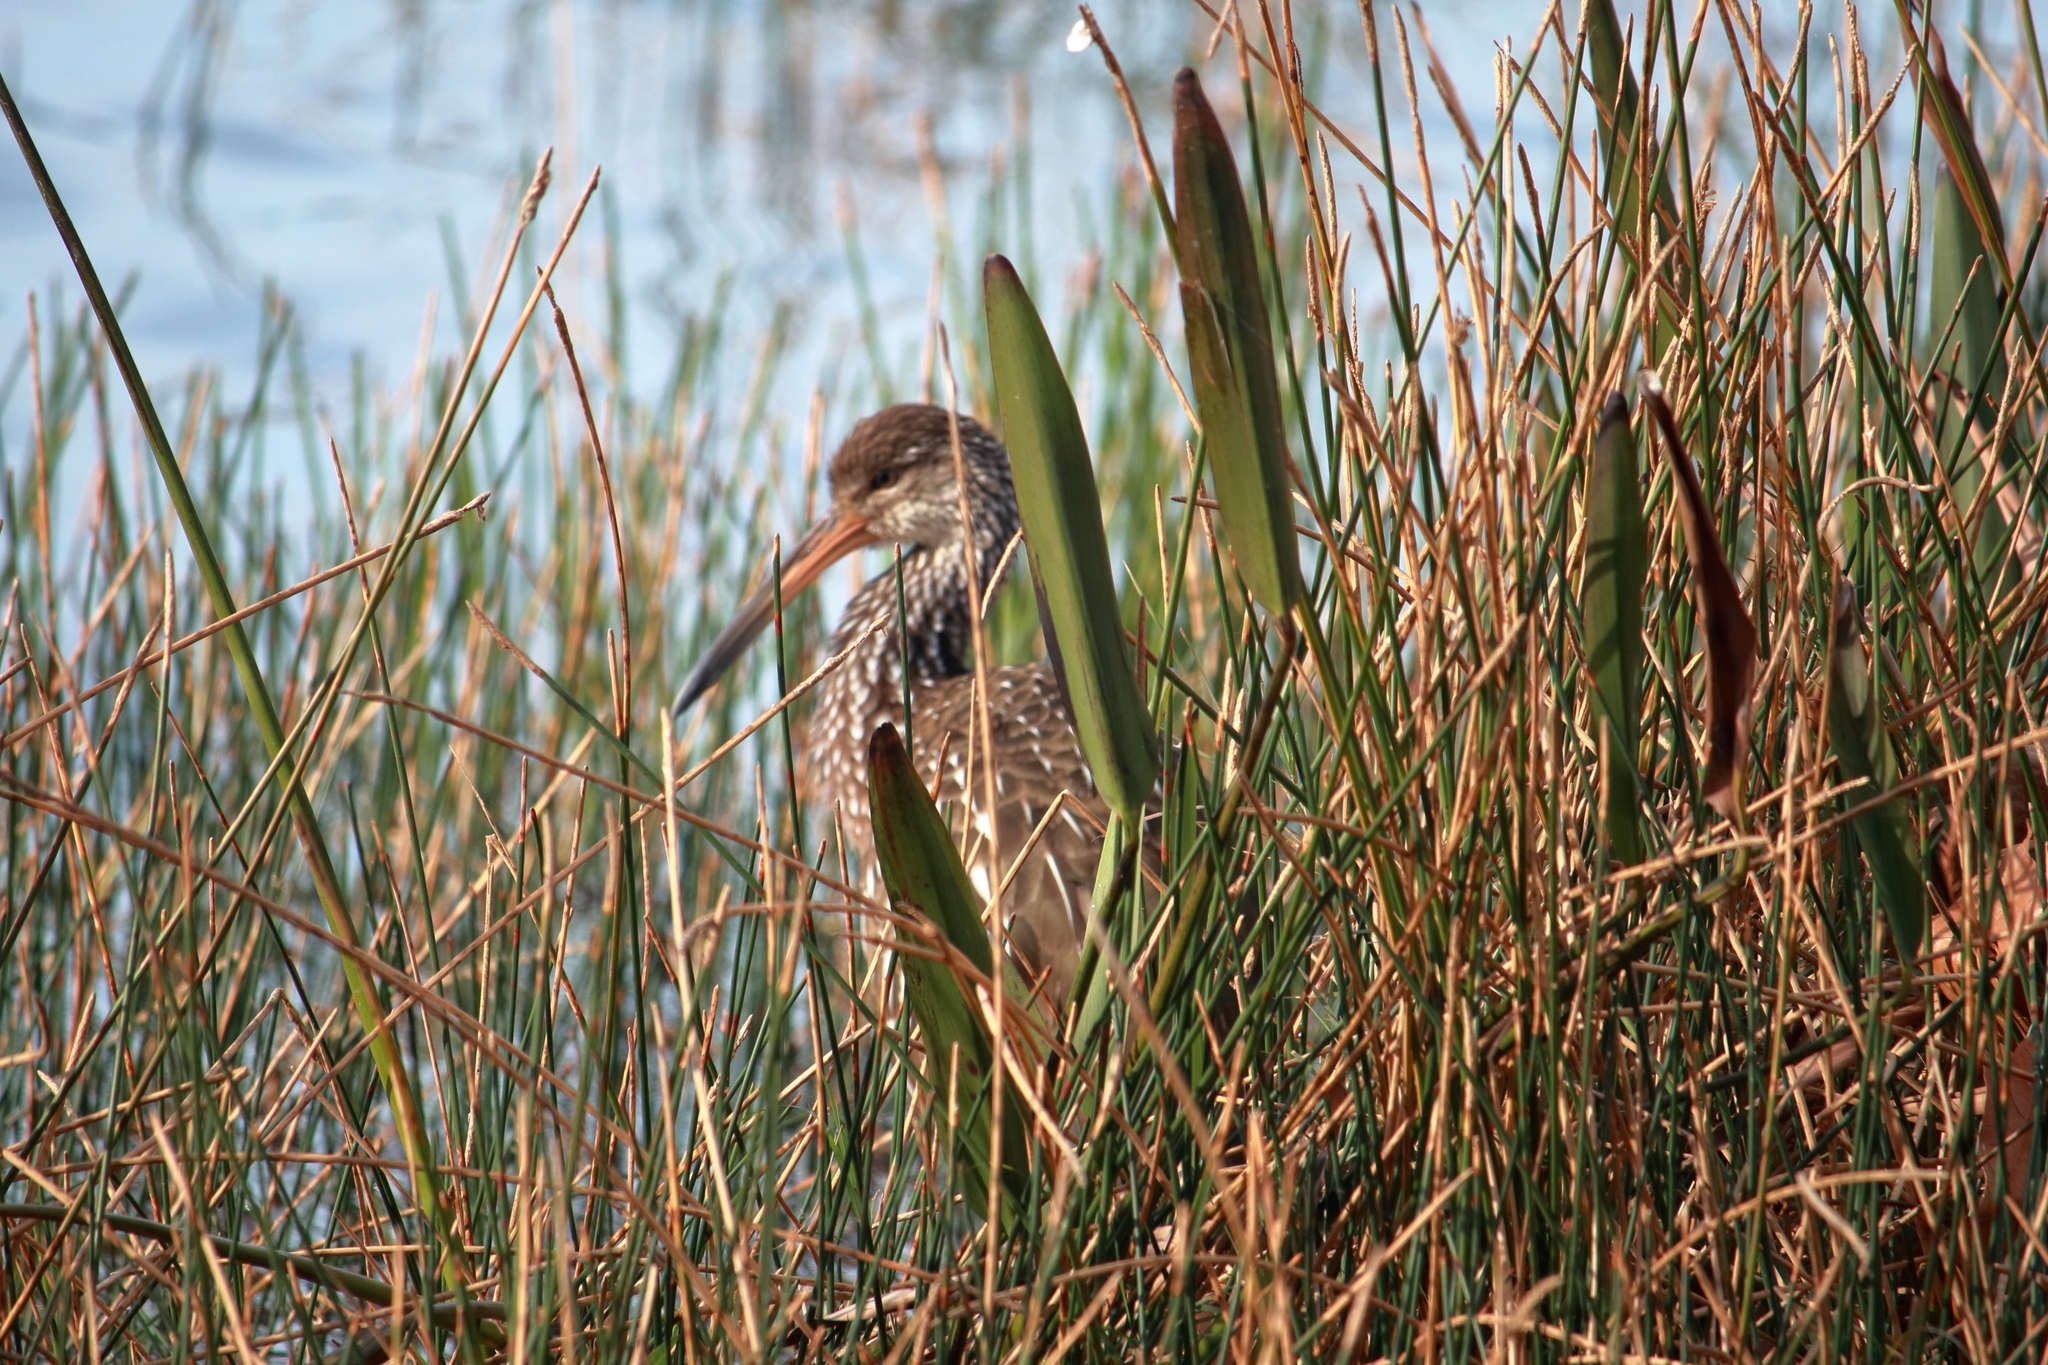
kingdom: Animalia
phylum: Chordata
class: Aves
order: Gruiformes
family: Aramidae
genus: Aramus
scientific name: Aramus guarauna
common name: Limpkin
